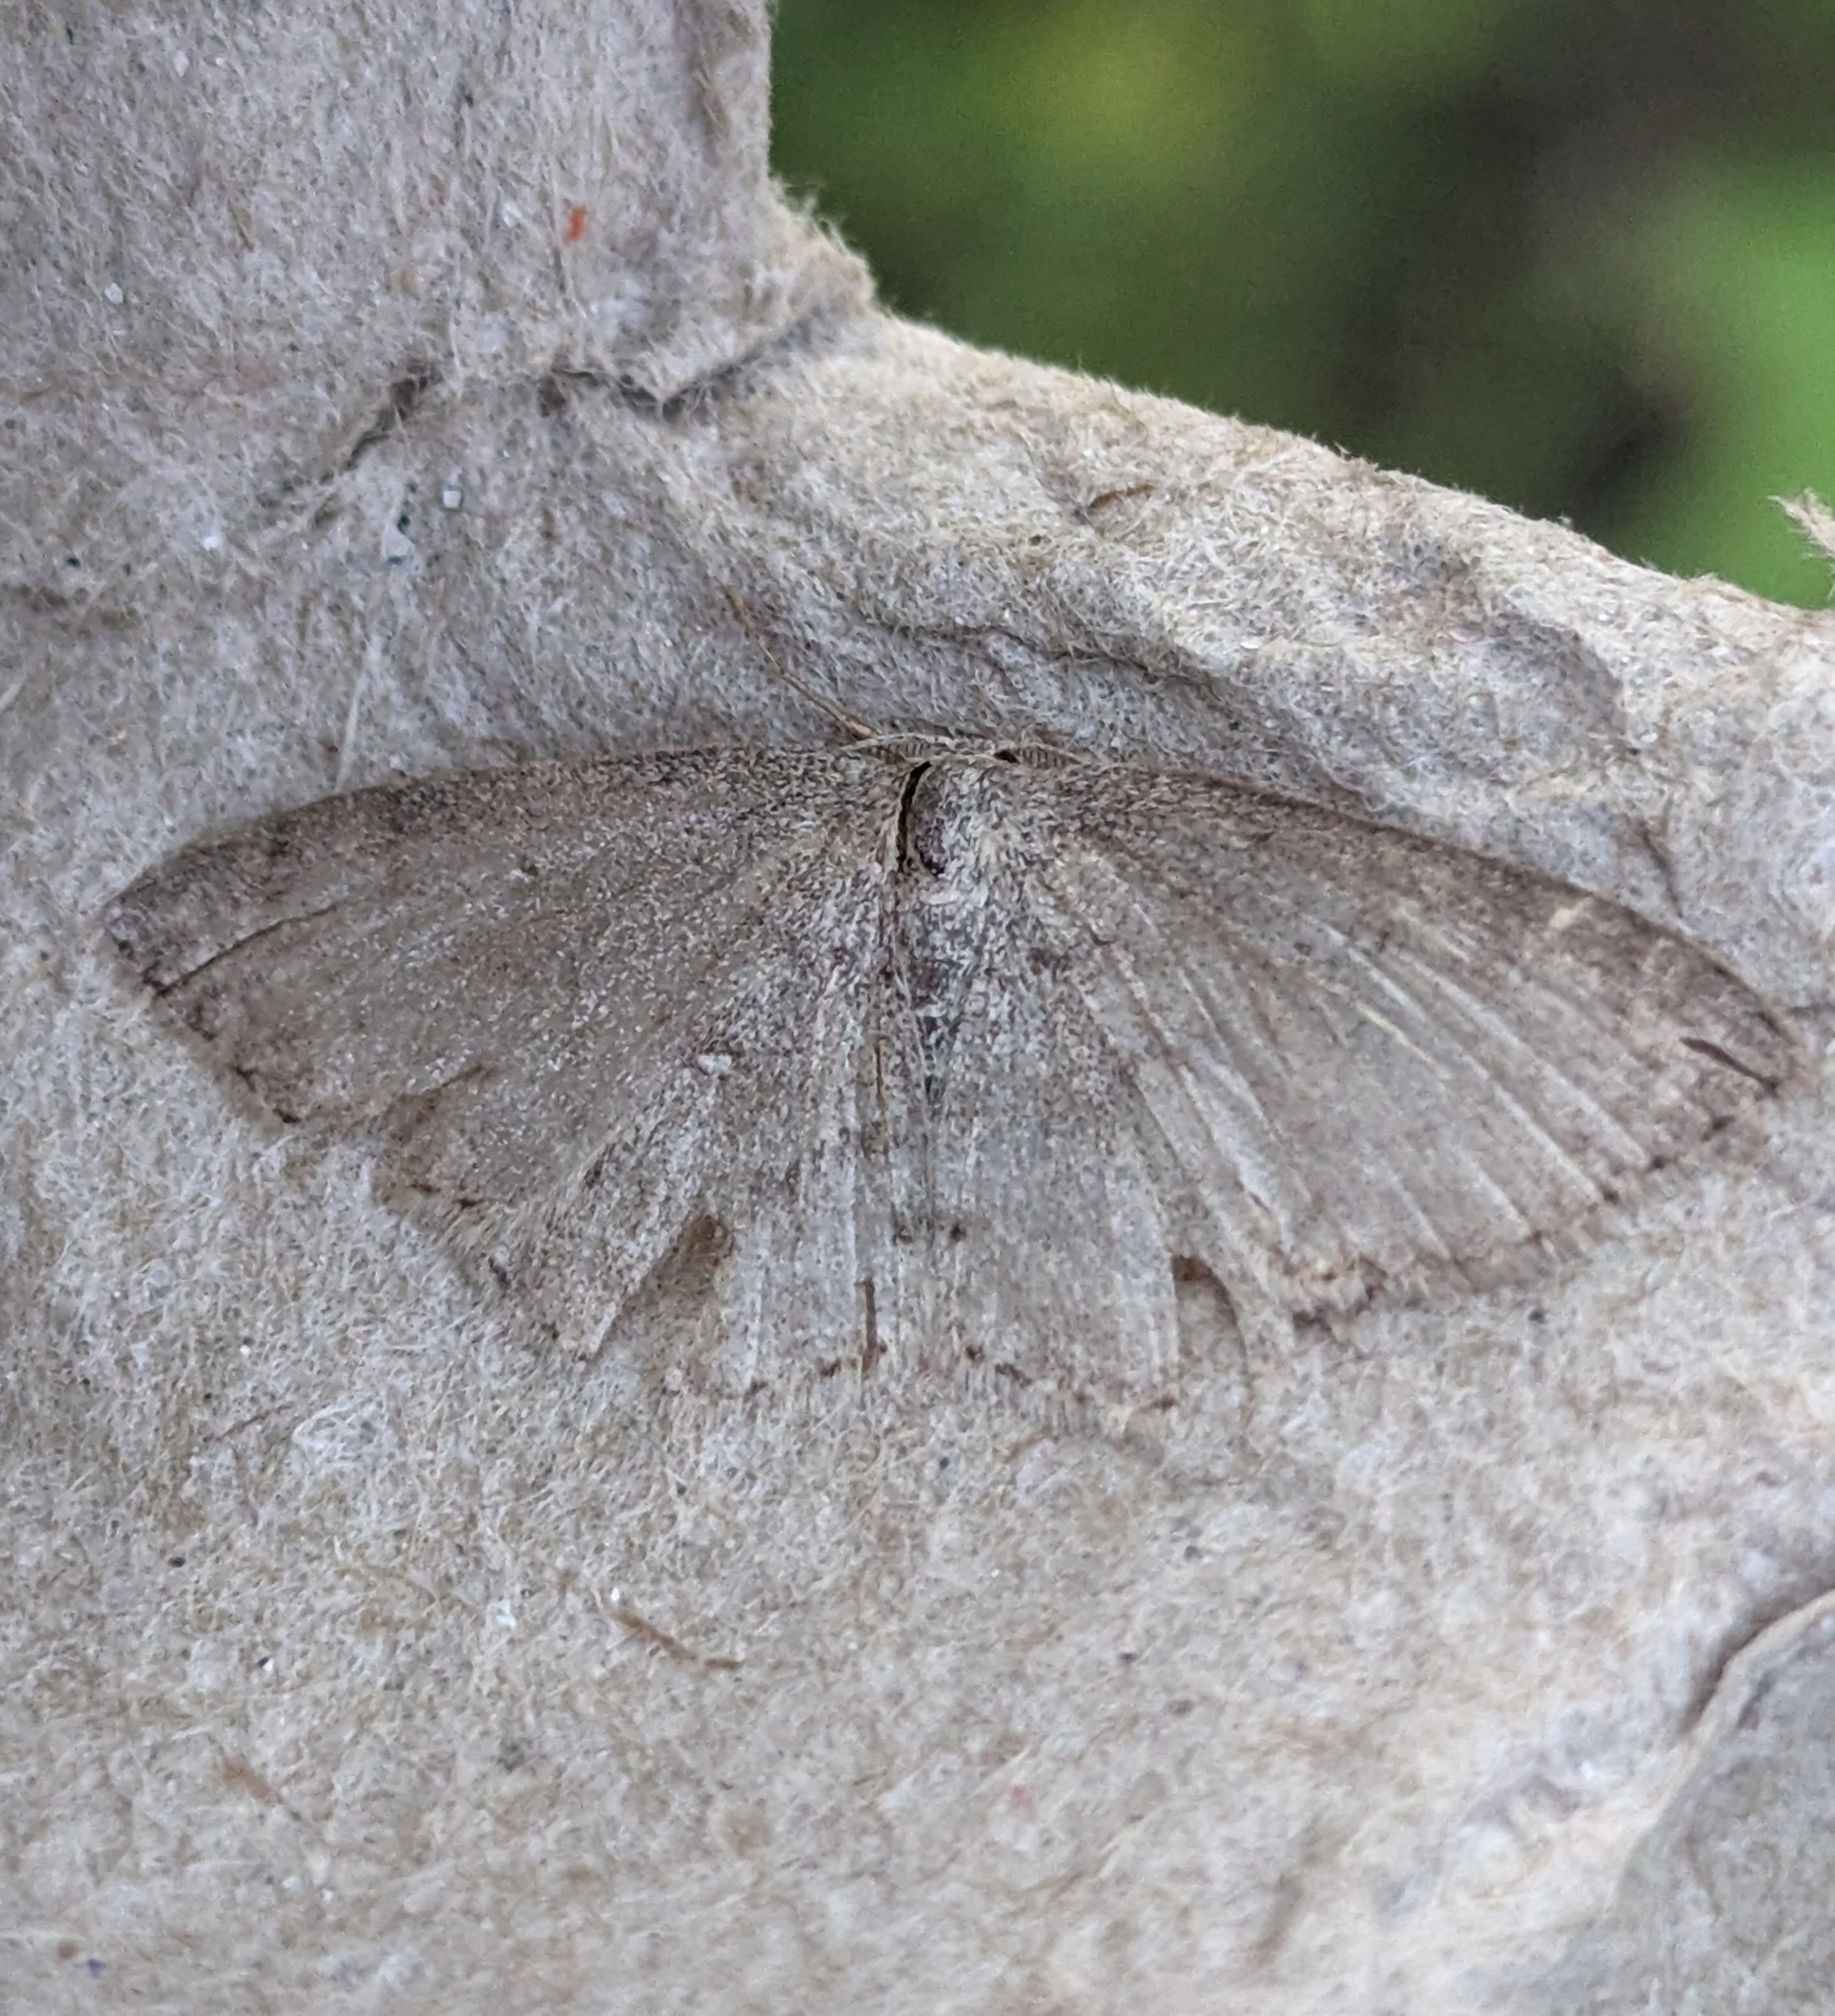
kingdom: Animalia
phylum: Arthropoda
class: Insecta
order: Lepidoptera
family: Geometridae
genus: Cyclophora
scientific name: Cyclophora pendulinaria
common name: Sweet fern geometer
